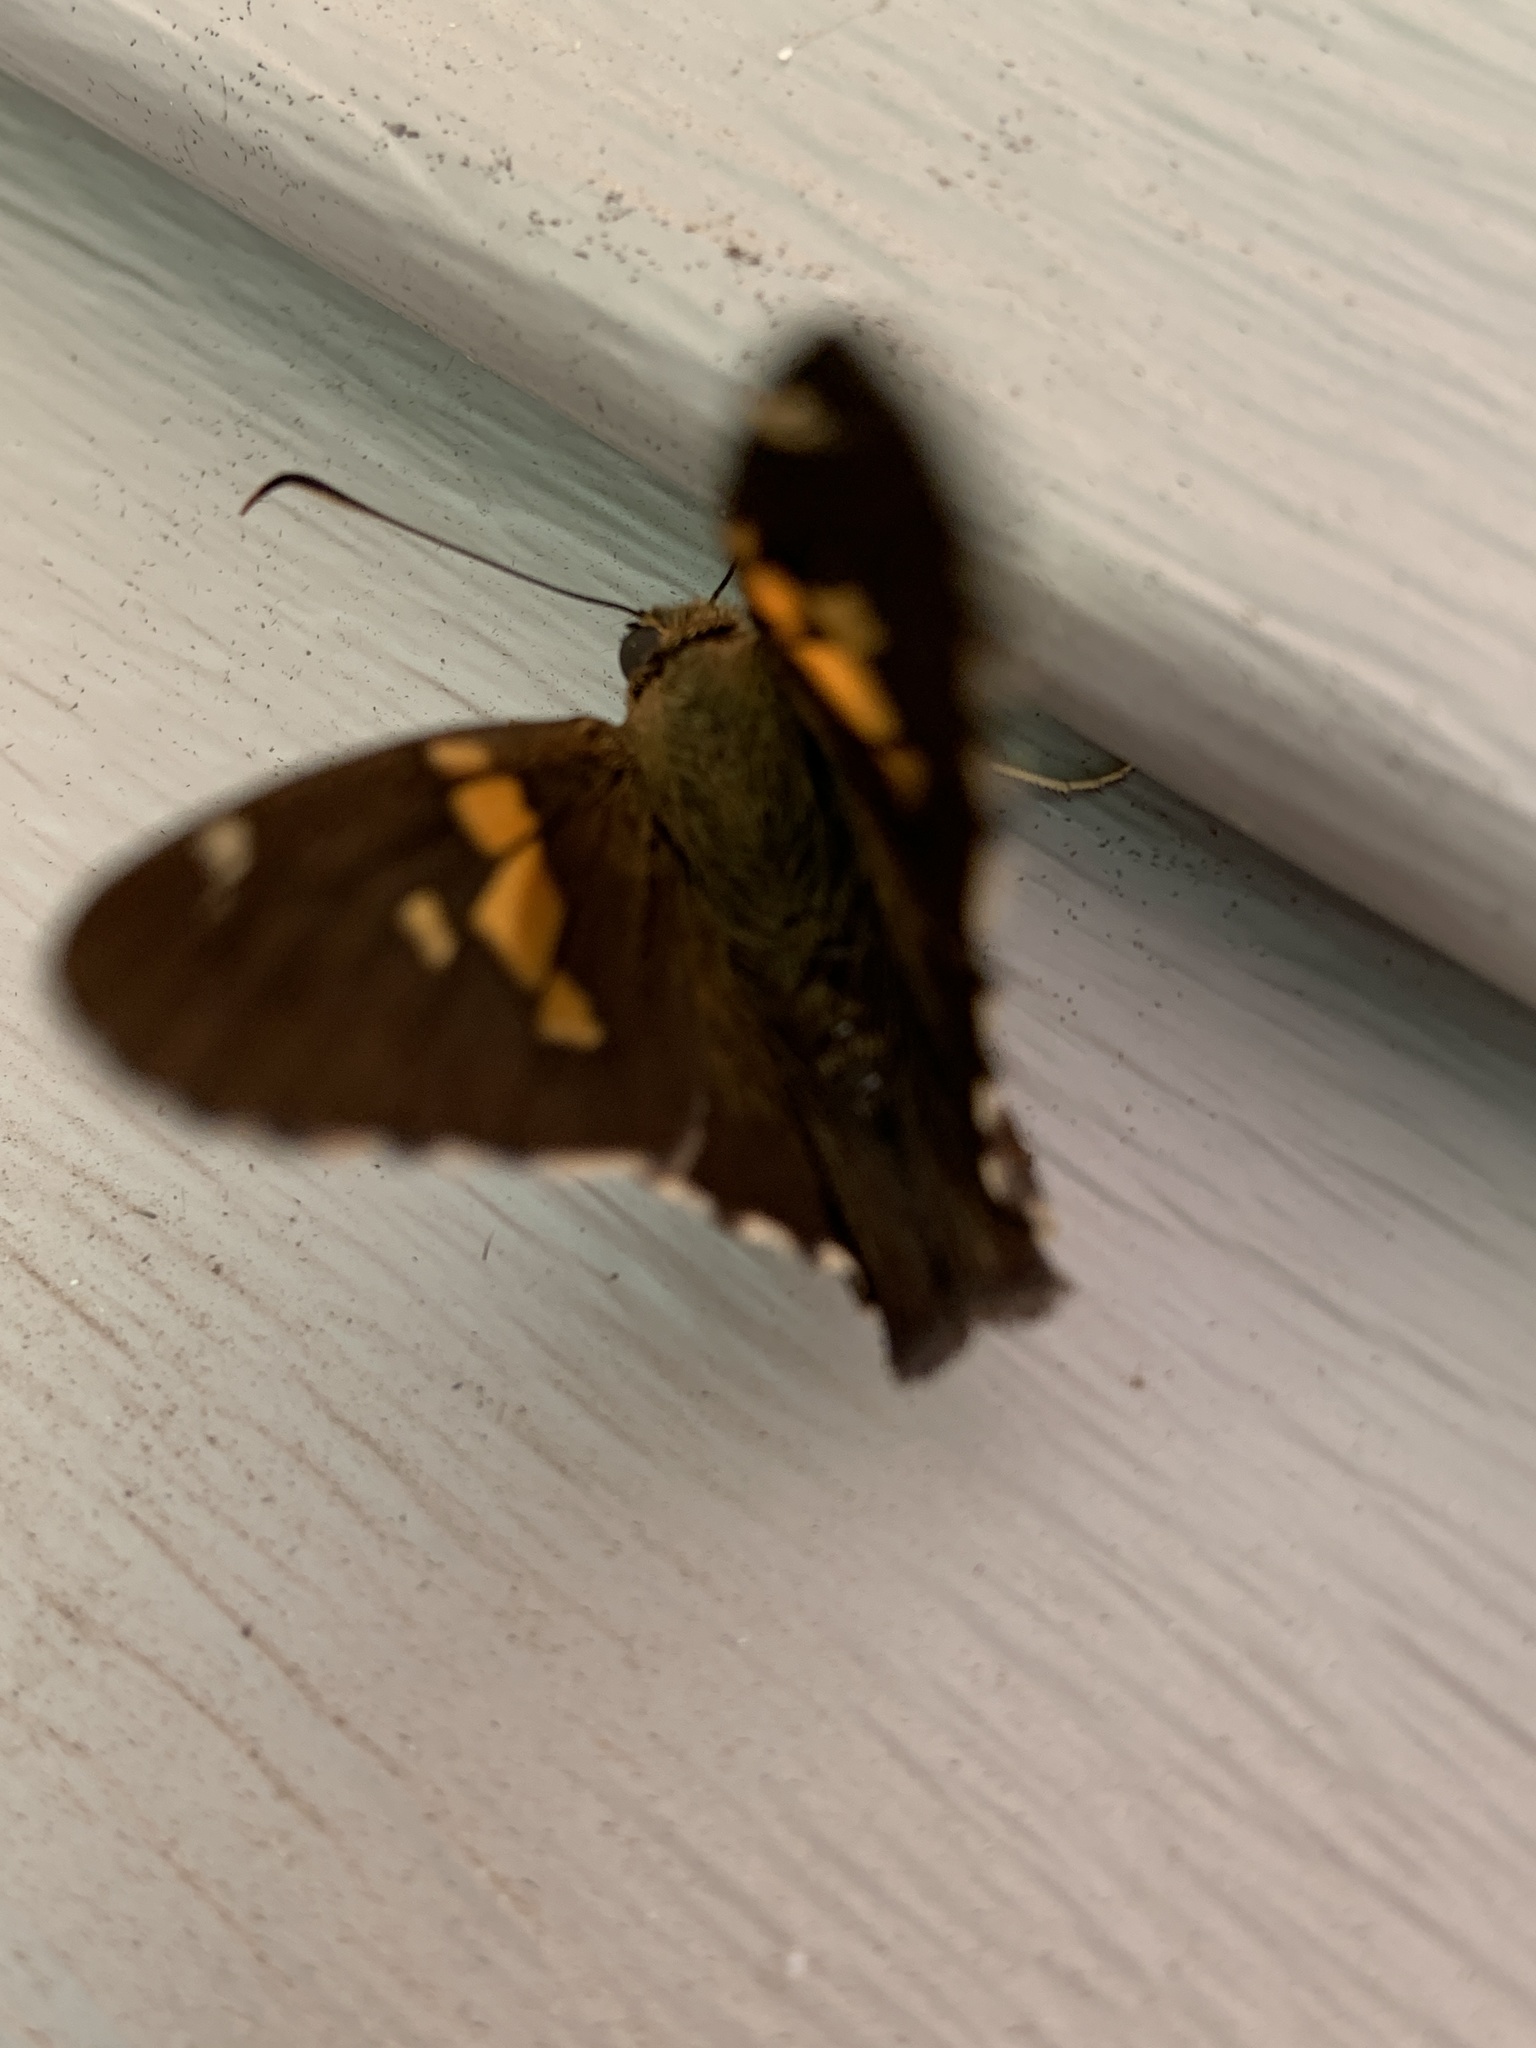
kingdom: Animalia
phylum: Arthropoda
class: Insecta
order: Lepidoptera
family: Hesperiidae
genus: Epargyreus
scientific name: Epargyreus clarus
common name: Silver-spotted skipper
